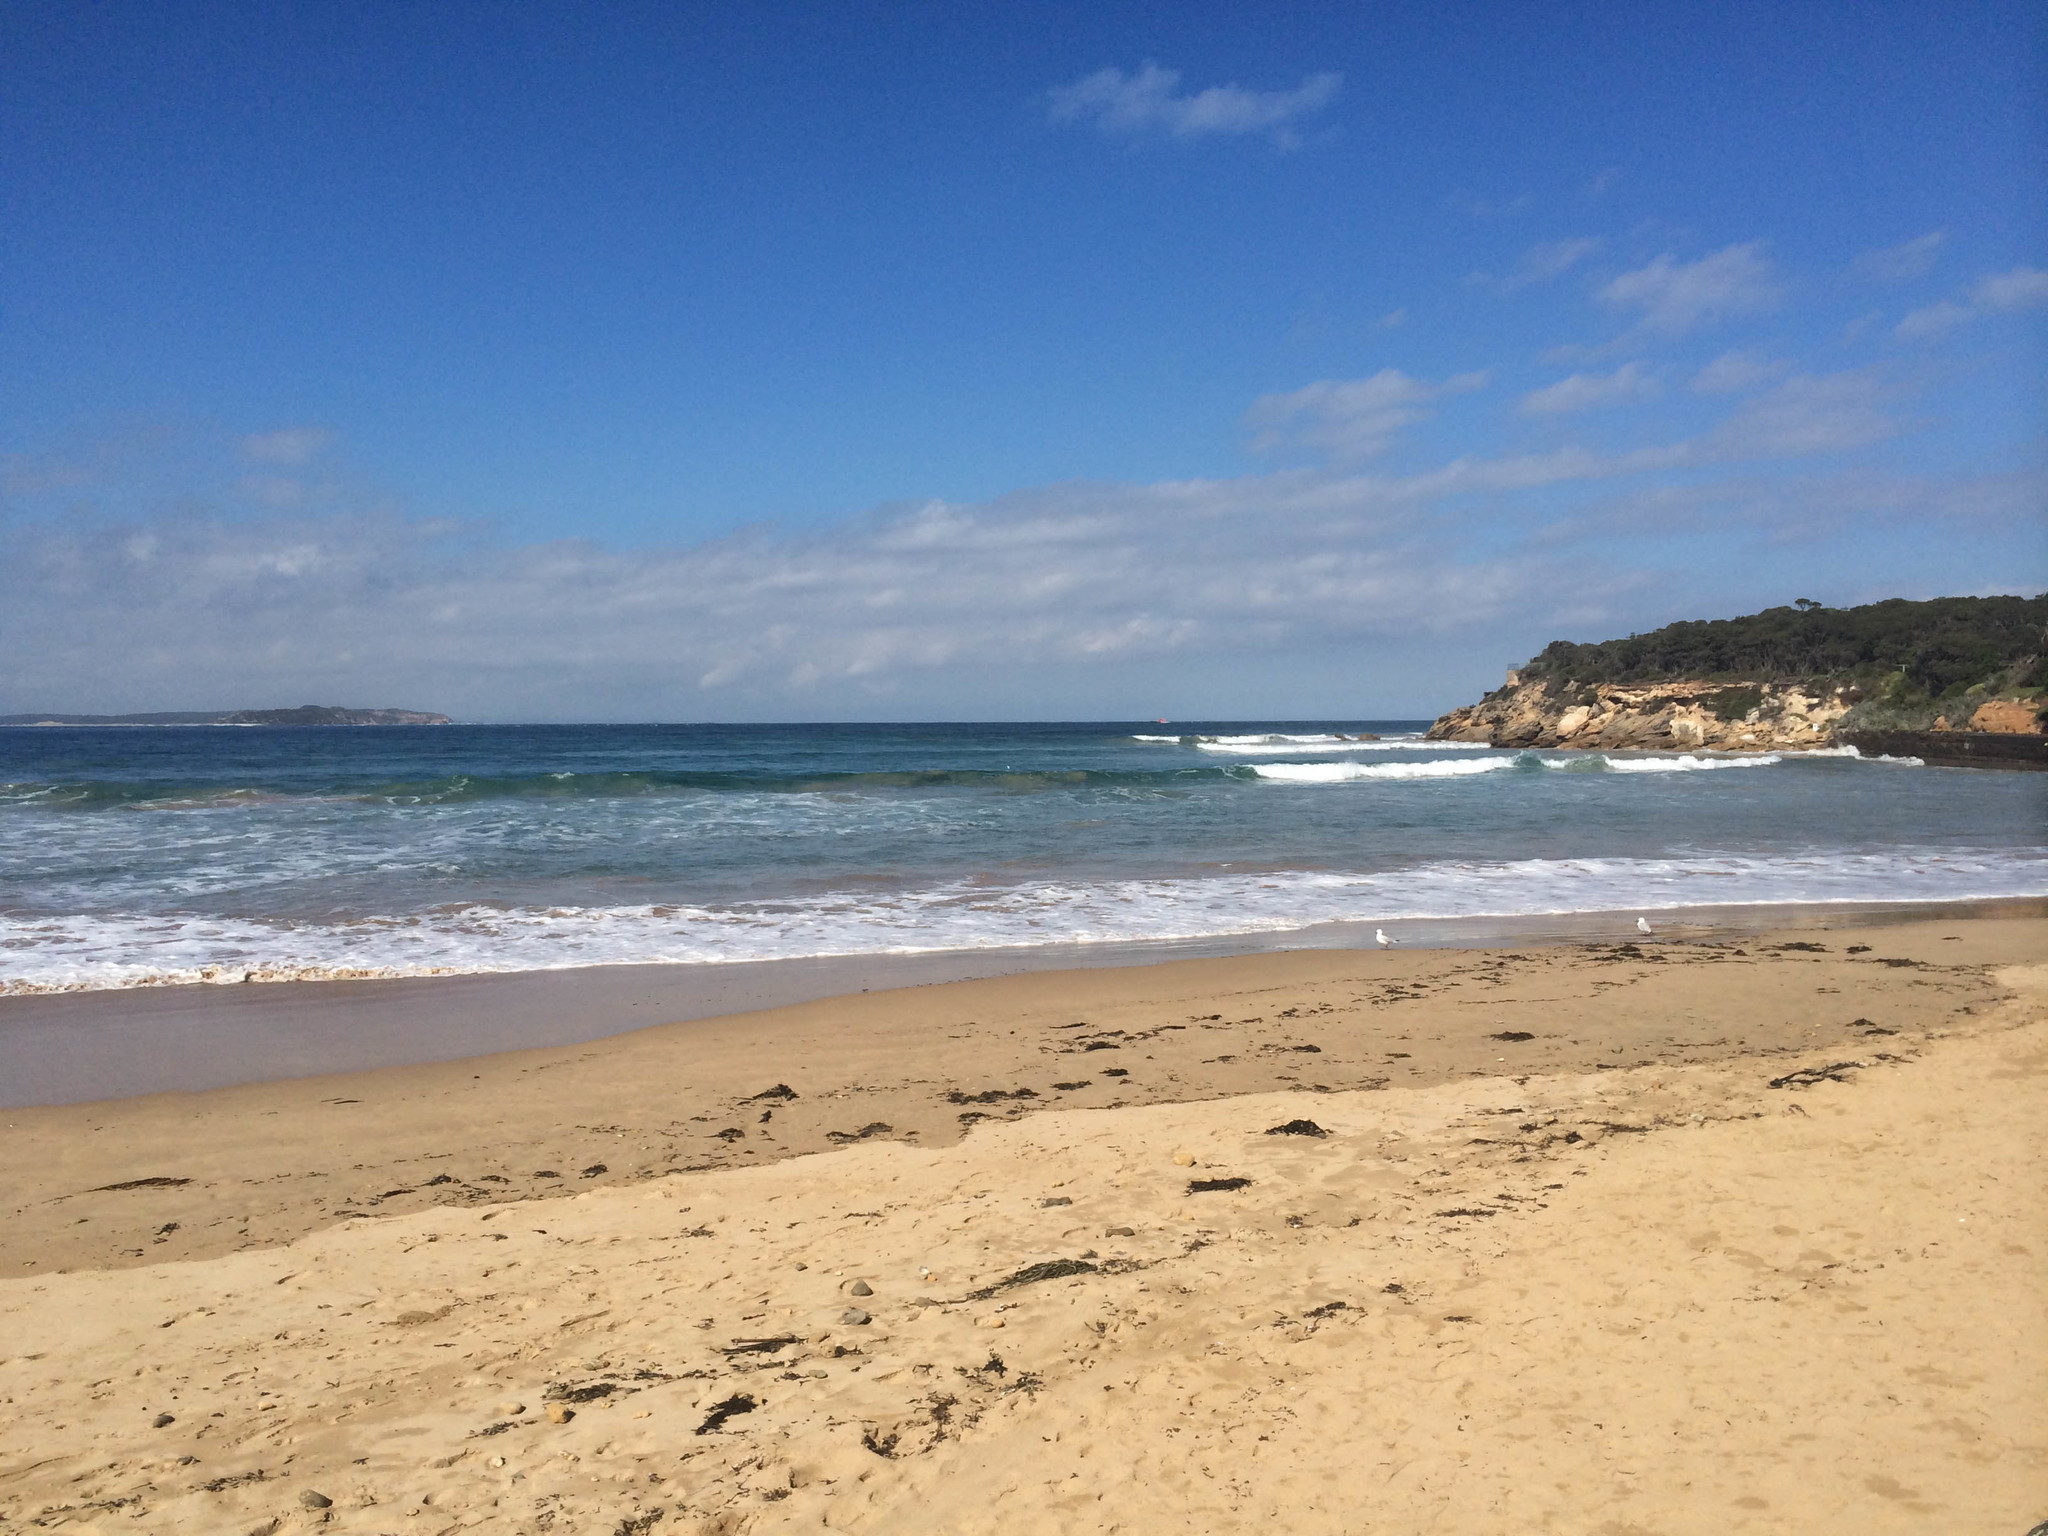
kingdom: Animalia
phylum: Chordata
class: Aves
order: Charadriiformes
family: Laridae
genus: Chroicocephalus
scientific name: Chroicocephalus novaehollandiae
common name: Silver gull
